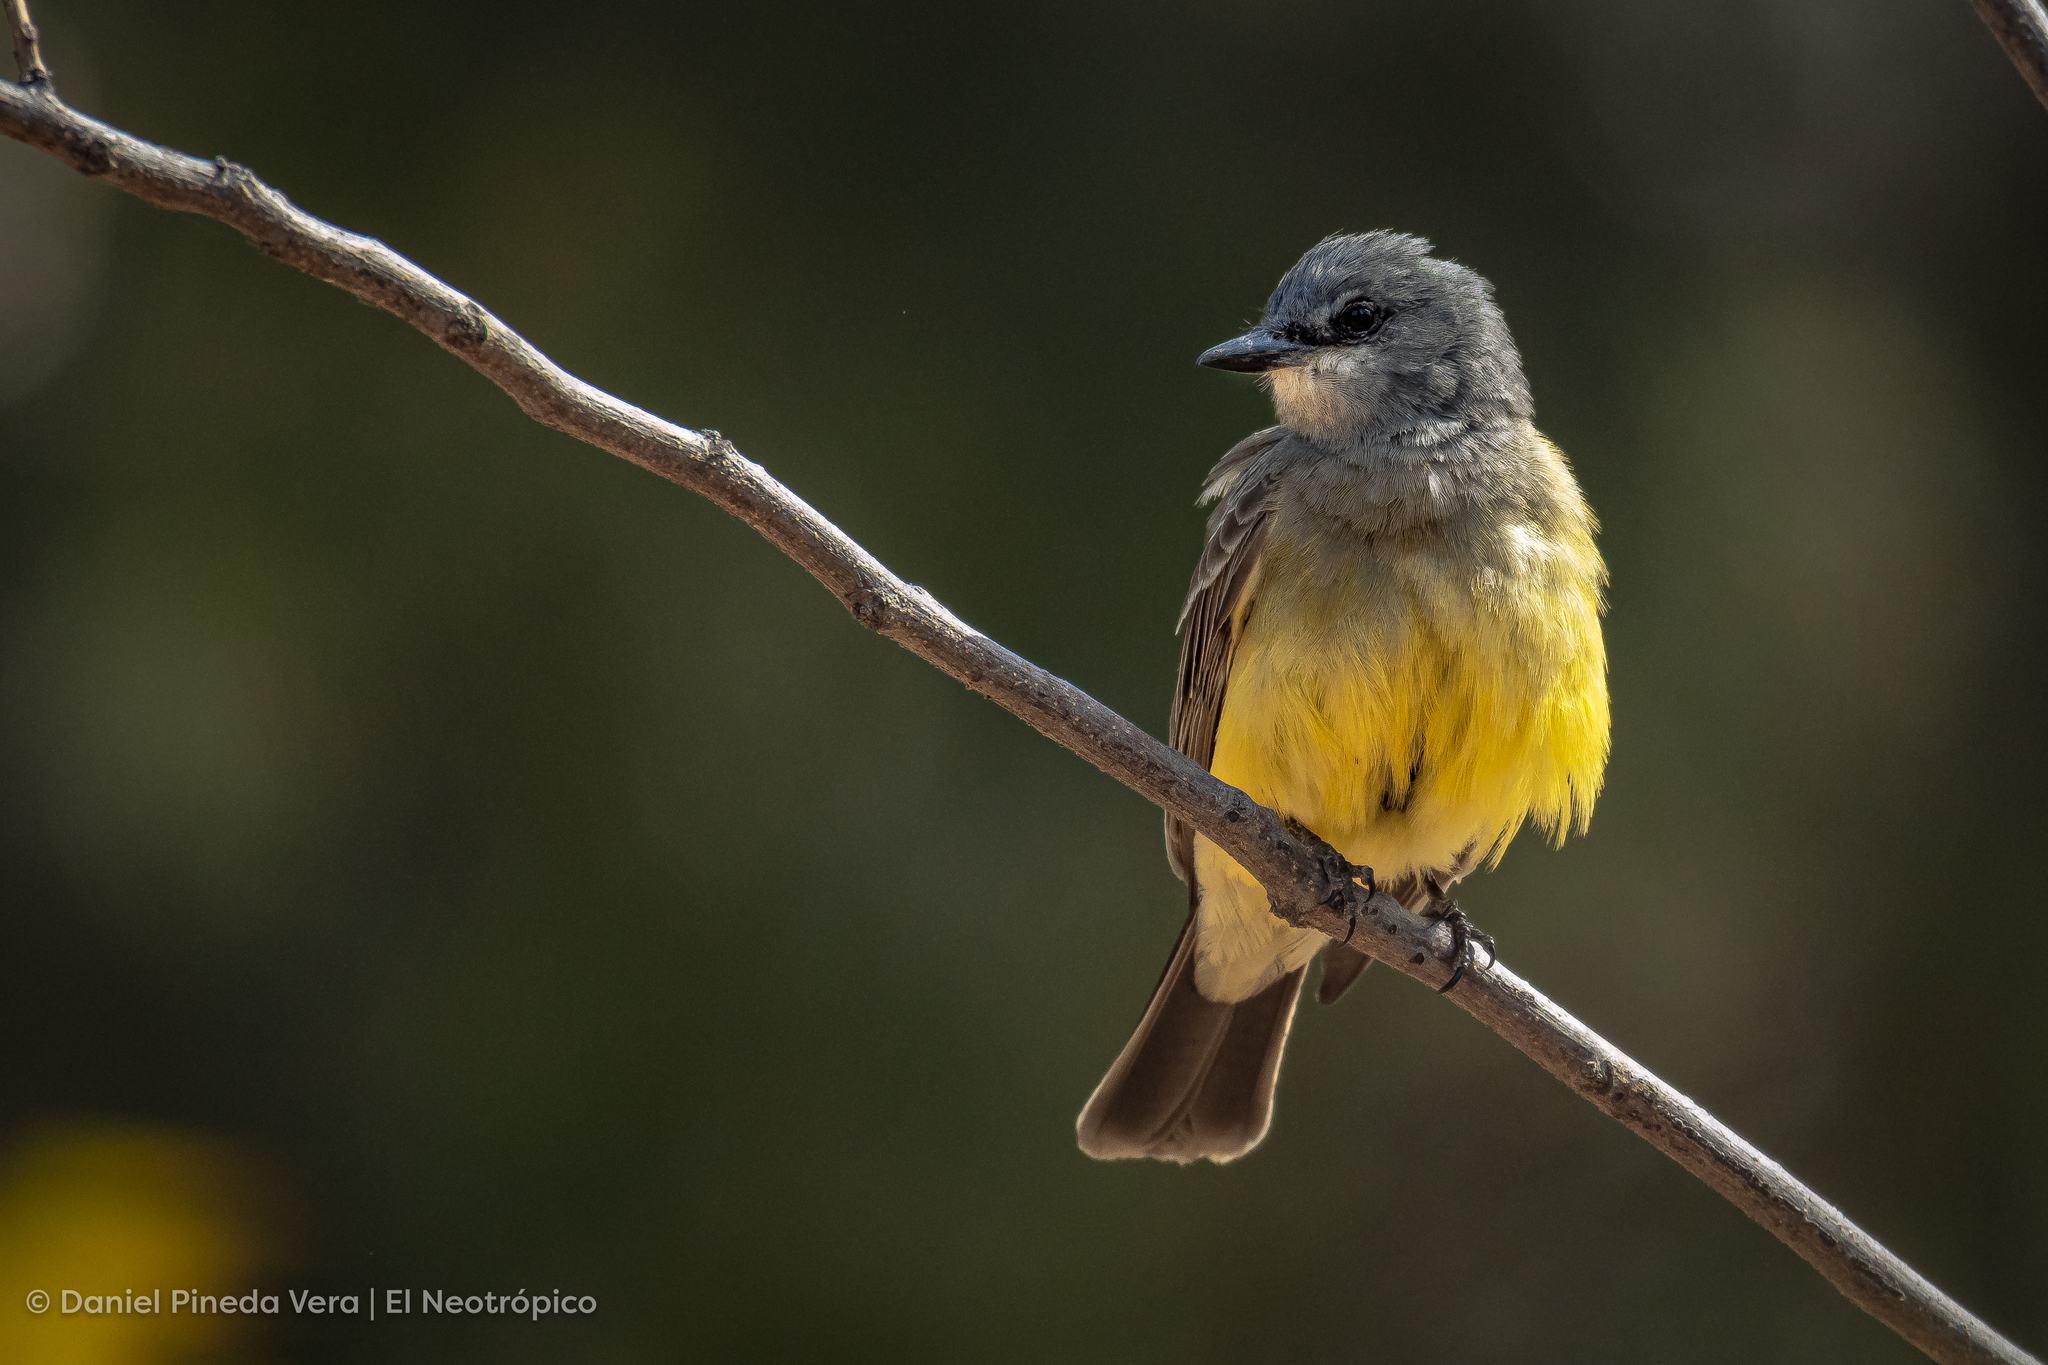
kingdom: Animalia
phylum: Chordata
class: Aves
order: Passeriformes
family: Tyrannidae
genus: Tyrannus
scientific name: Tyrannus vociferans
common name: Cassin's kingbird
